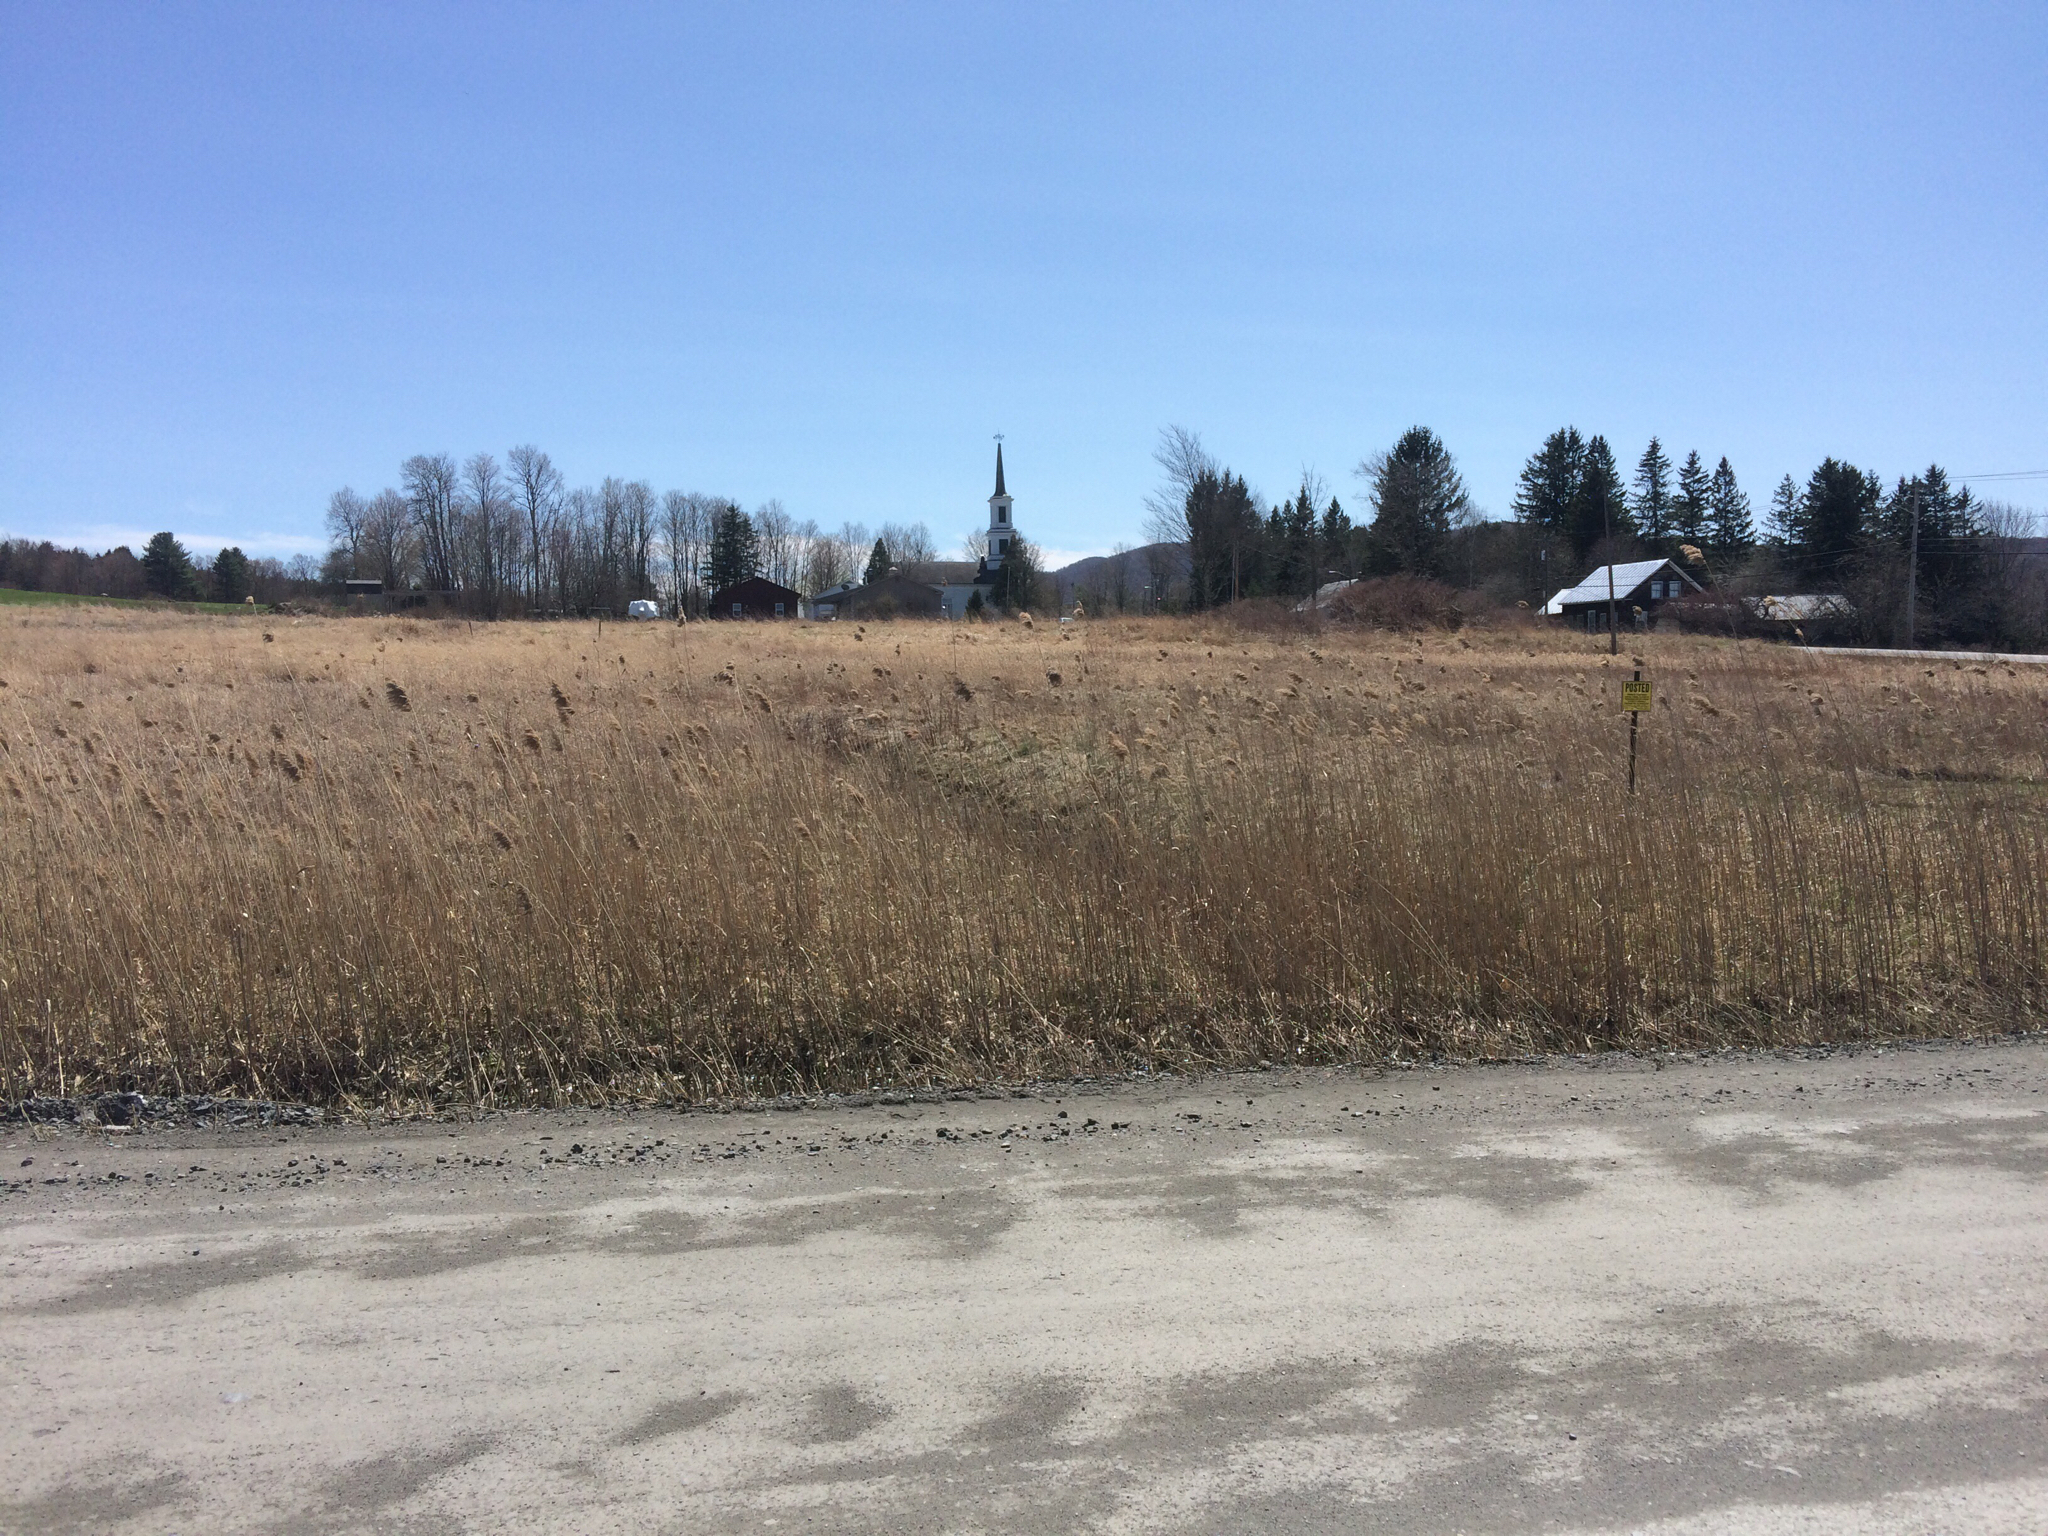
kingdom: Plantae
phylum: Tracheophyta
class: Liliopsida
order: Poales
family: Poaceae
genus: Phragmites
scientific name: Phragmites australis
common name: Common reed
